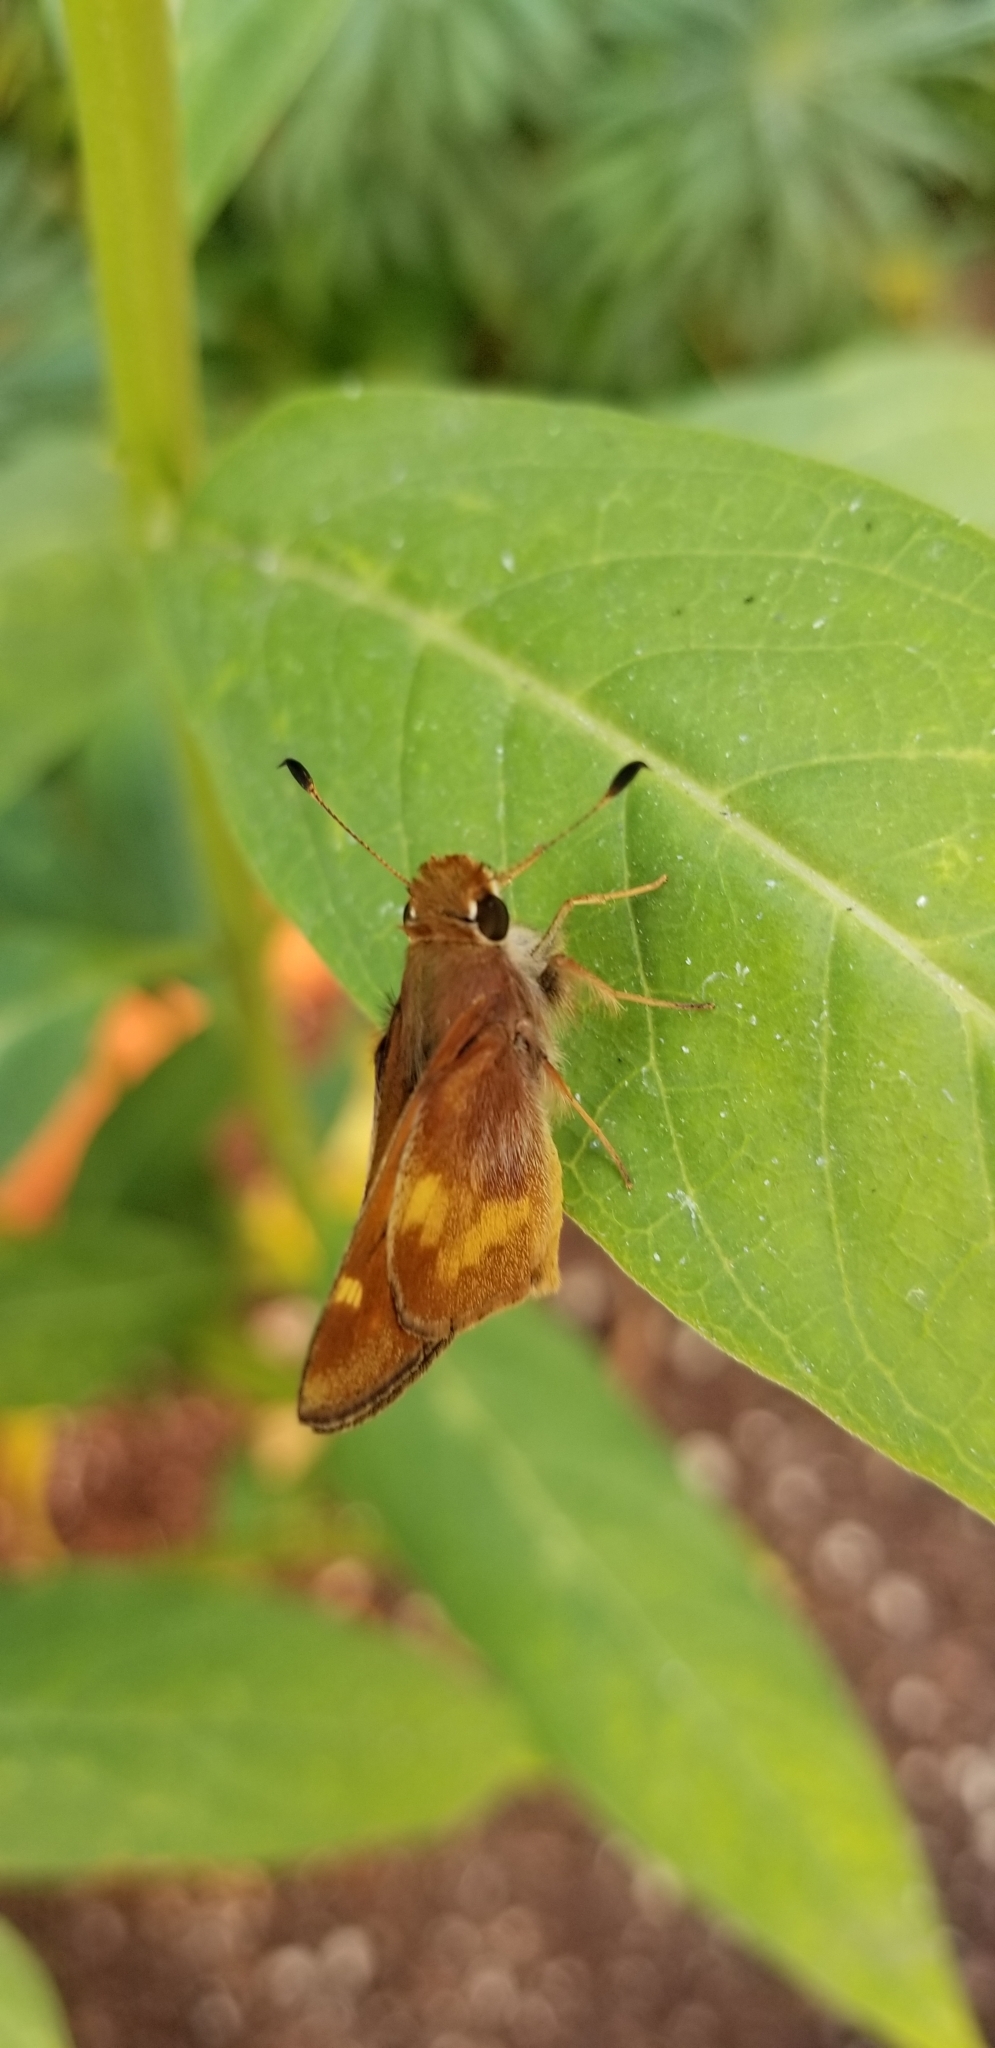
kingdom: Animalia
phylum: Arthropoda
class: Insecta
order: Lepidoptera
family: Hesperiidae
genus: Lon
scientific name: Lon melane
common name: Umber skipper
